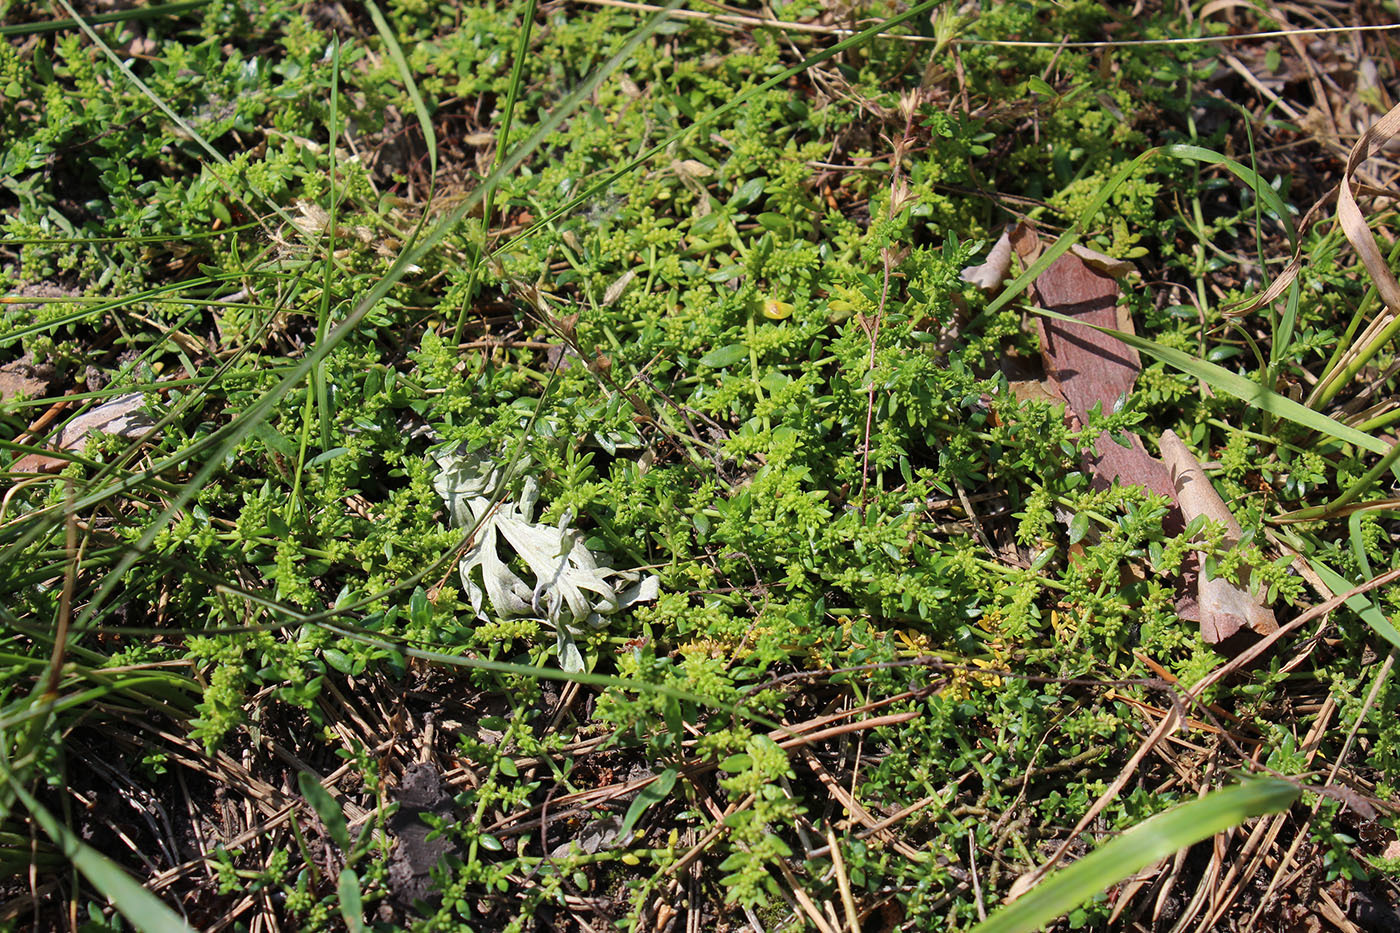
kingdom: Plantae
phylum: Tracheophyta
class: Magnoliopsida
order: Caryophyllales
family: Caryophyllaceae
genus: Herniaria
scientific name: Herniaria glabra
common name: Smooth rupturewort
